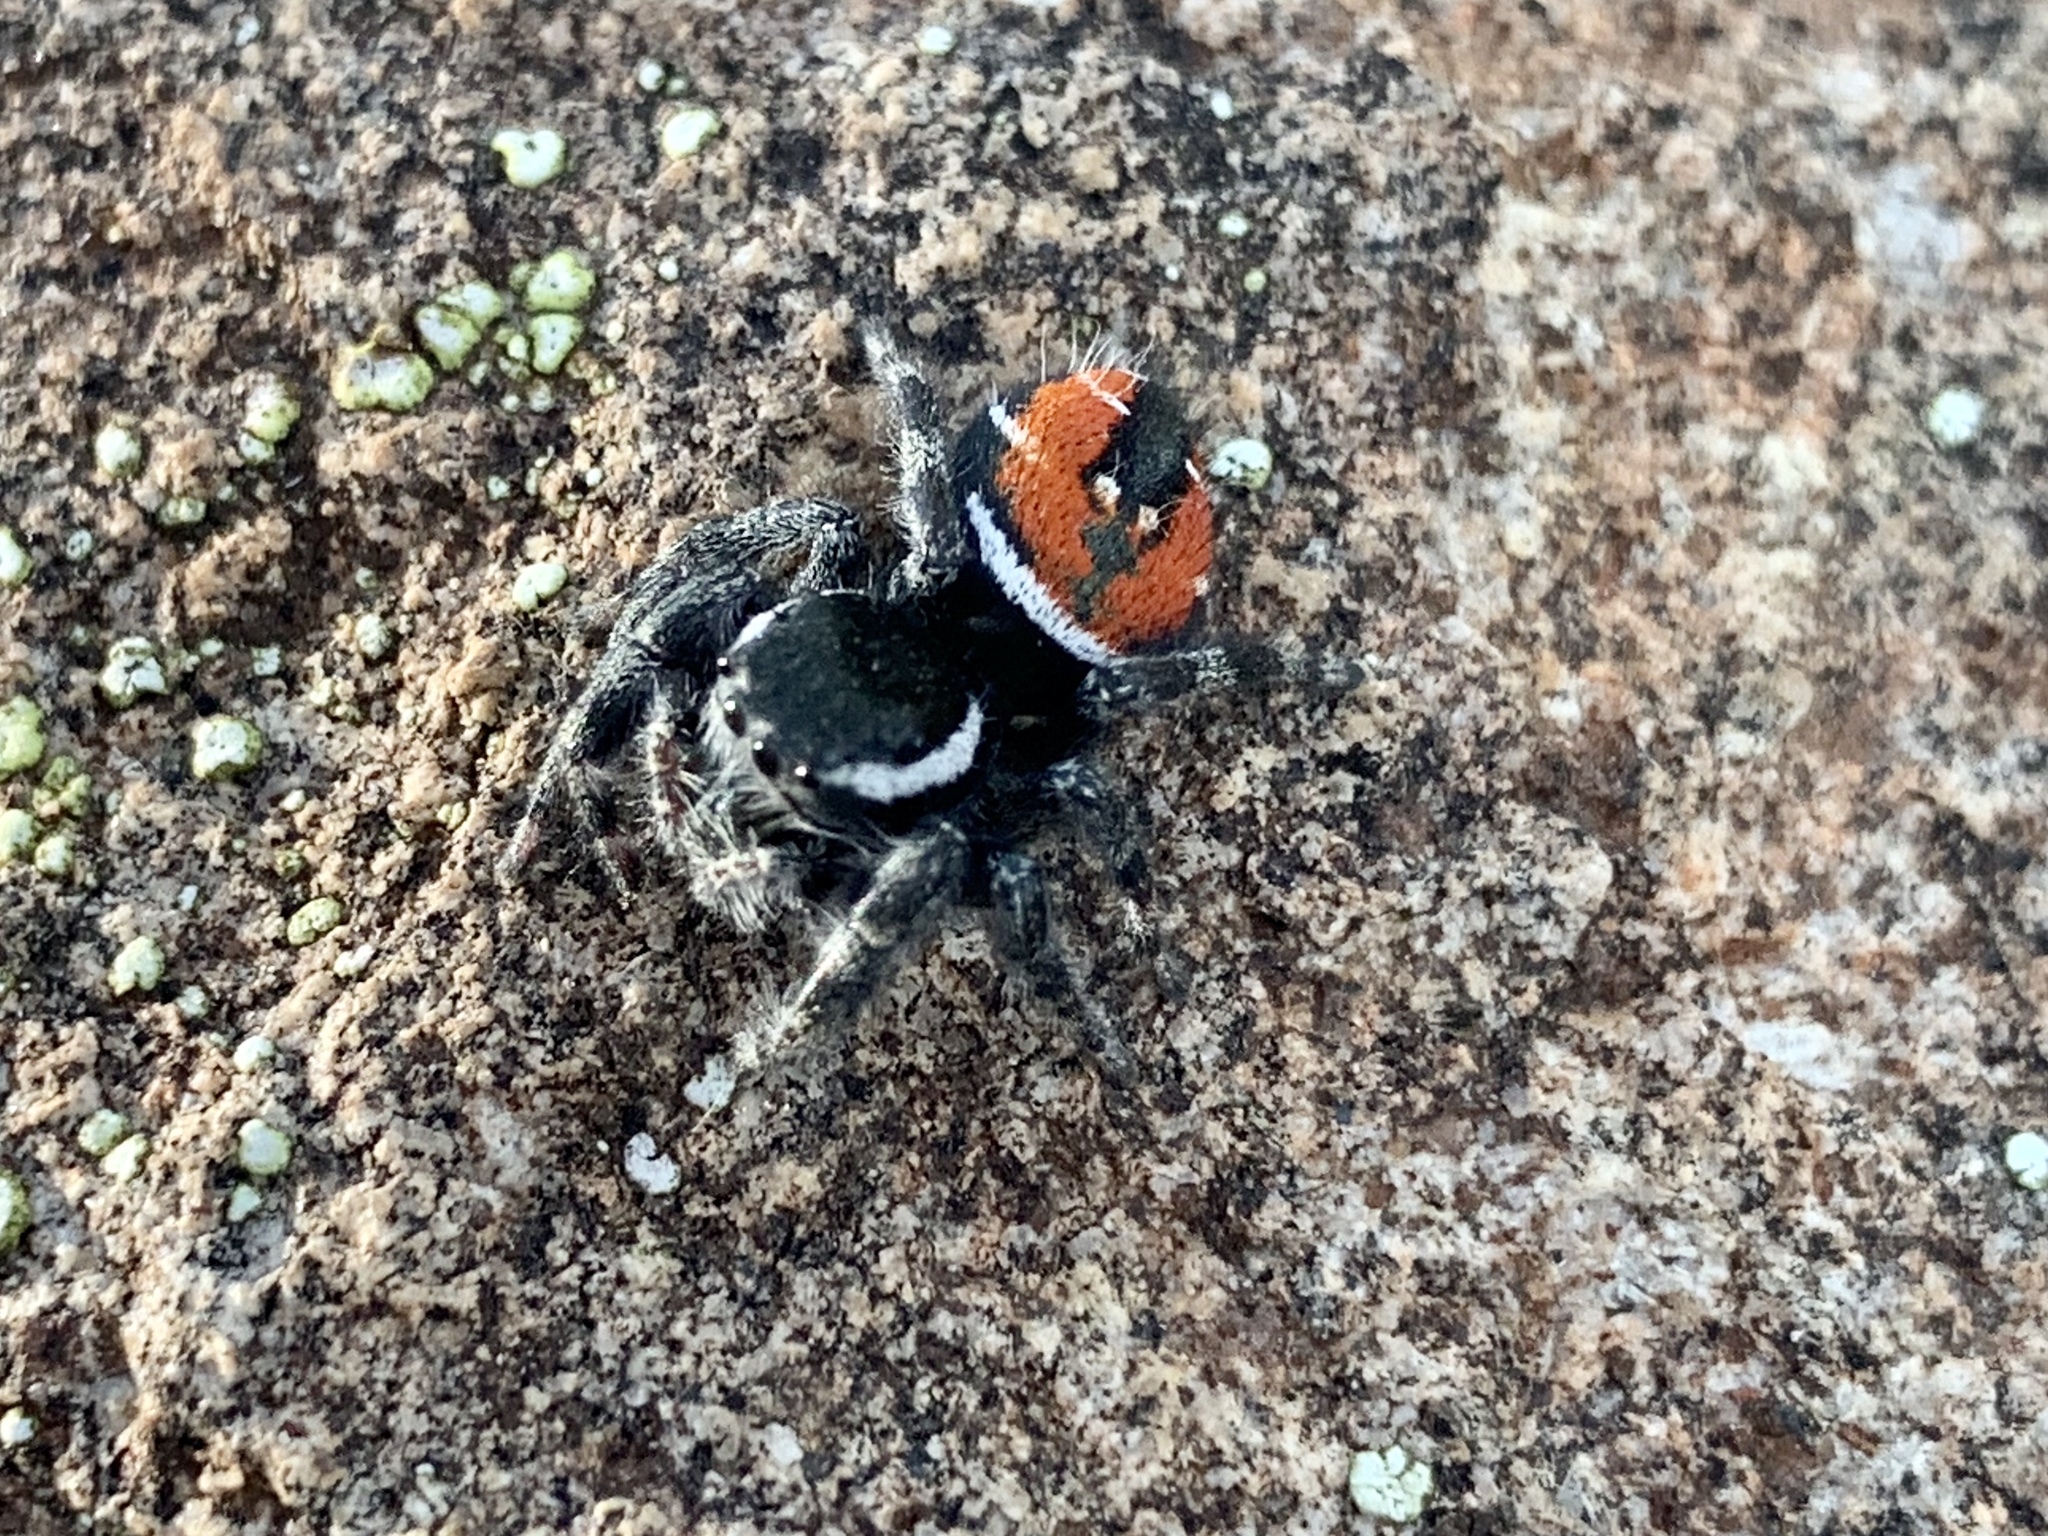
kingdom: Animalia
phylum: Arthropoda
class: Arachnida
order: Araneae
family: Salticidae
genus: Phidippus
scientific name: Phidippus carneus
